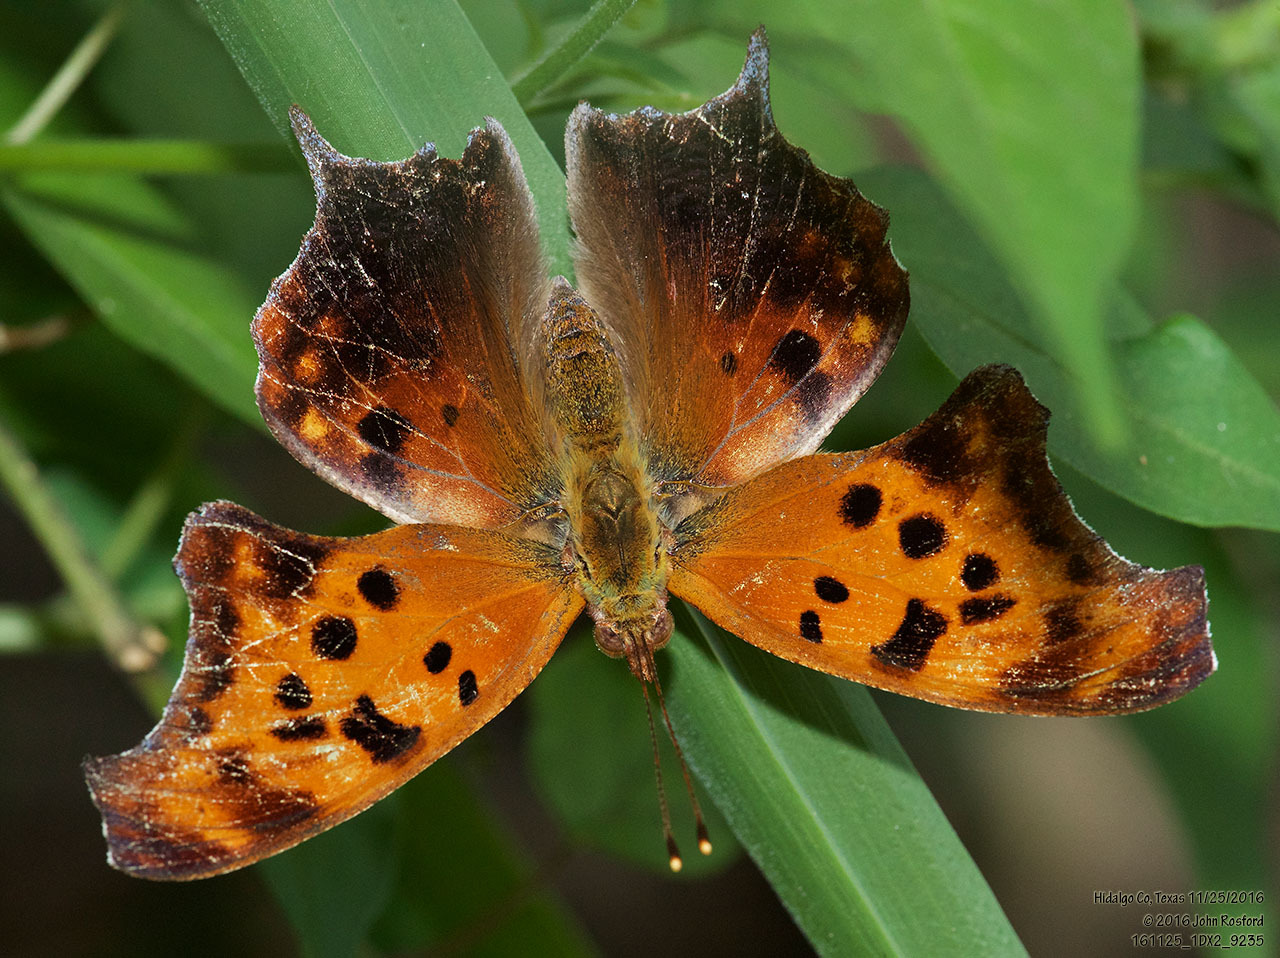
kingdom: Animalia
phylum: Arthropoda
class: Insecta
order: Lepidoptera
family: Nymphalidae
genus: Polygonia
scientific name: Polygonia interrogationis
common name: Question mark
